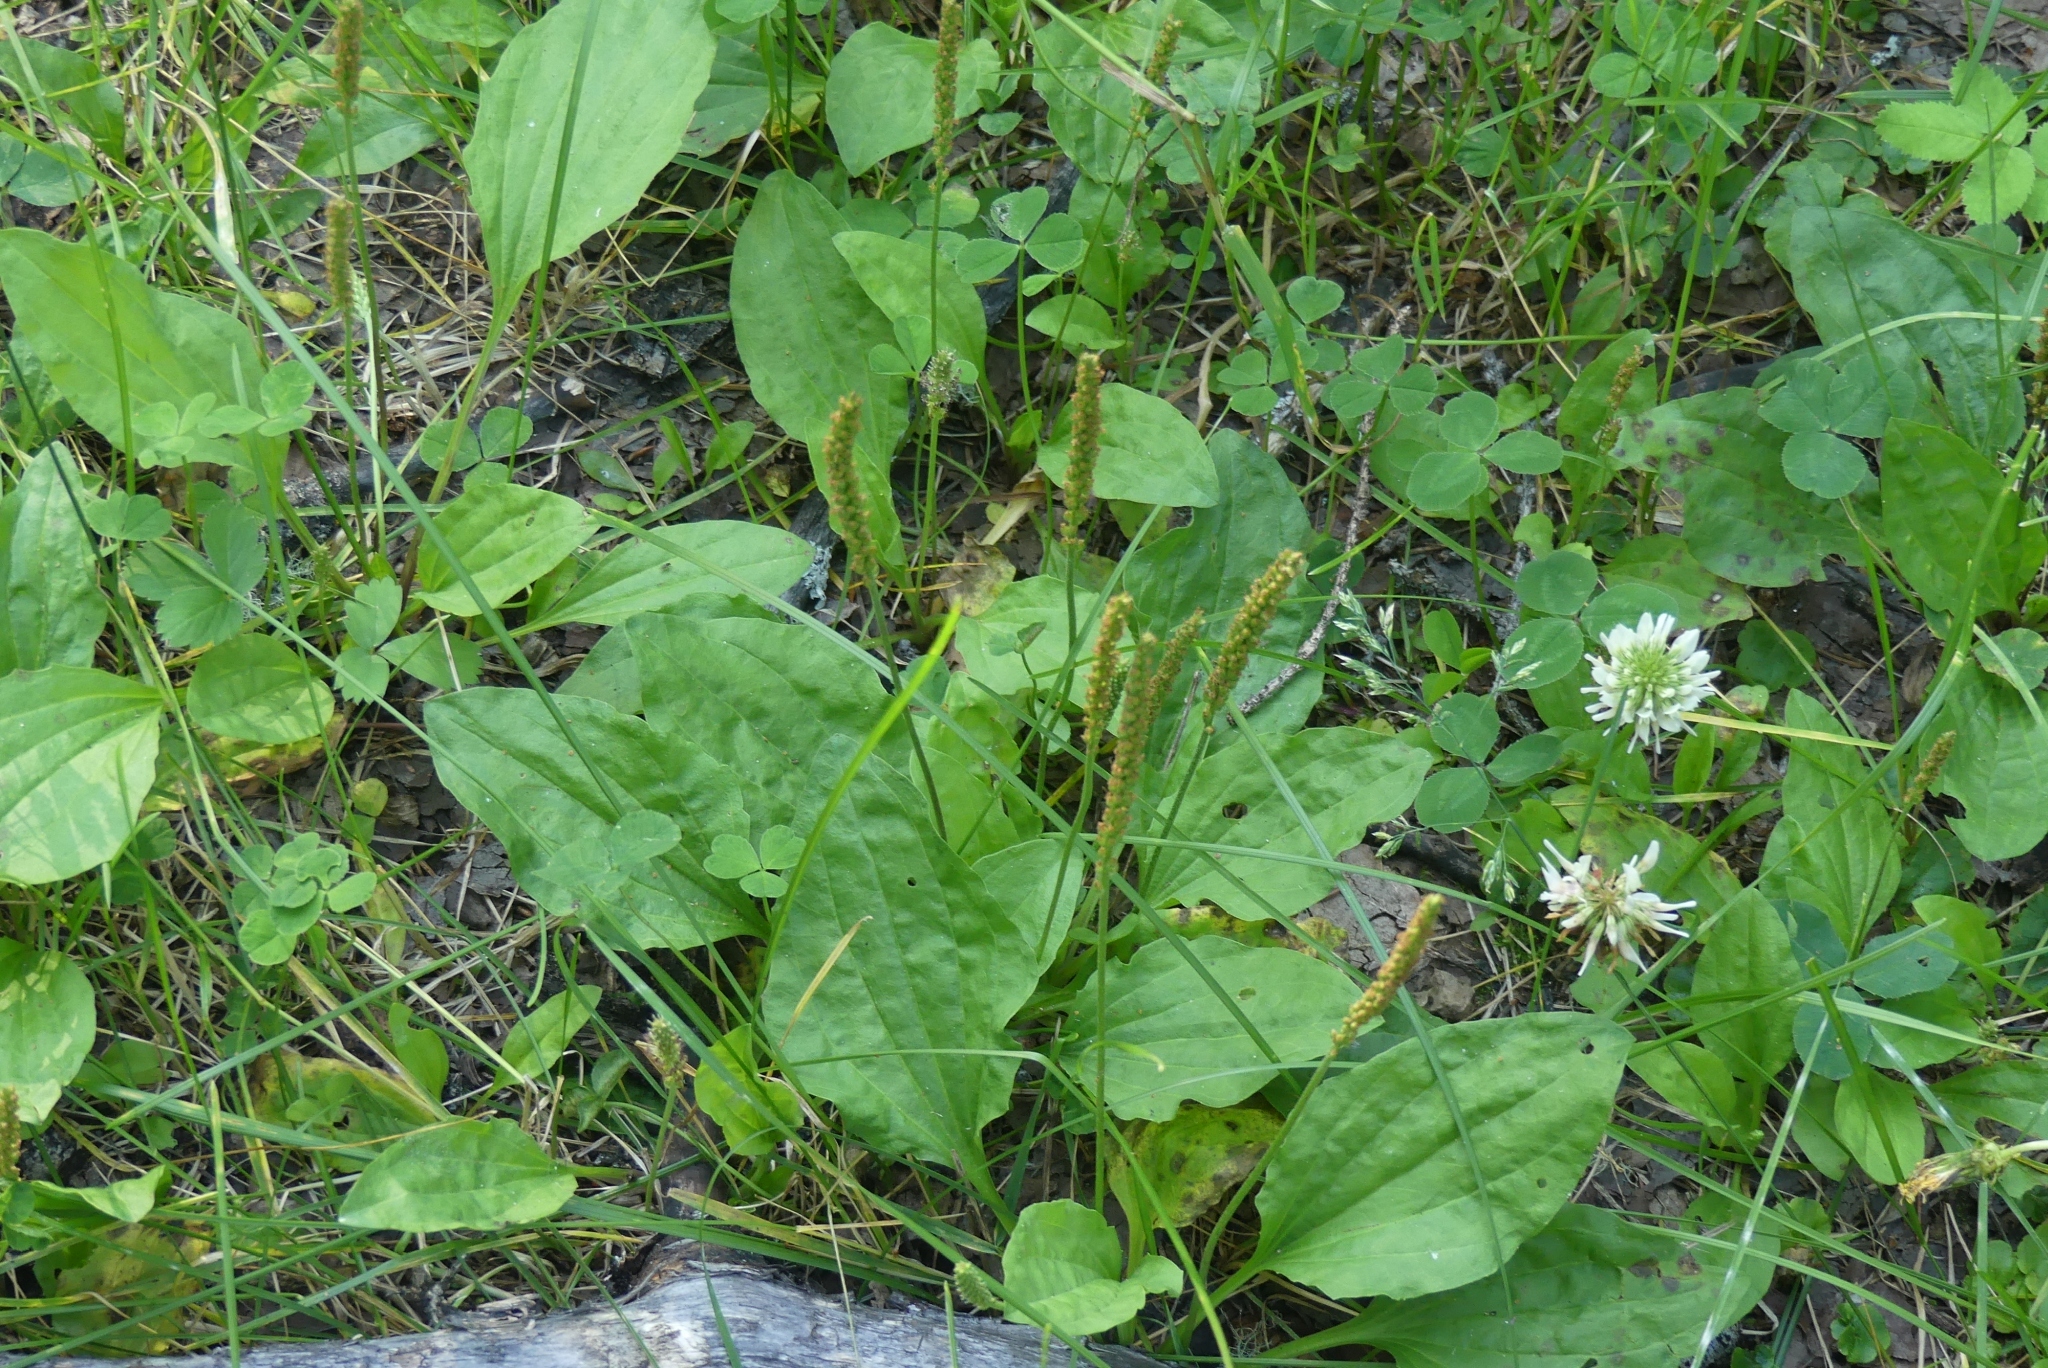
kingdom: Plantae
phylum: Tracheophyta
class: Magnoliopsida
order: Lamiales
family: Plantaginaceae
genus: Plantago
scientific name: Plantago major
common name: Common plantain
